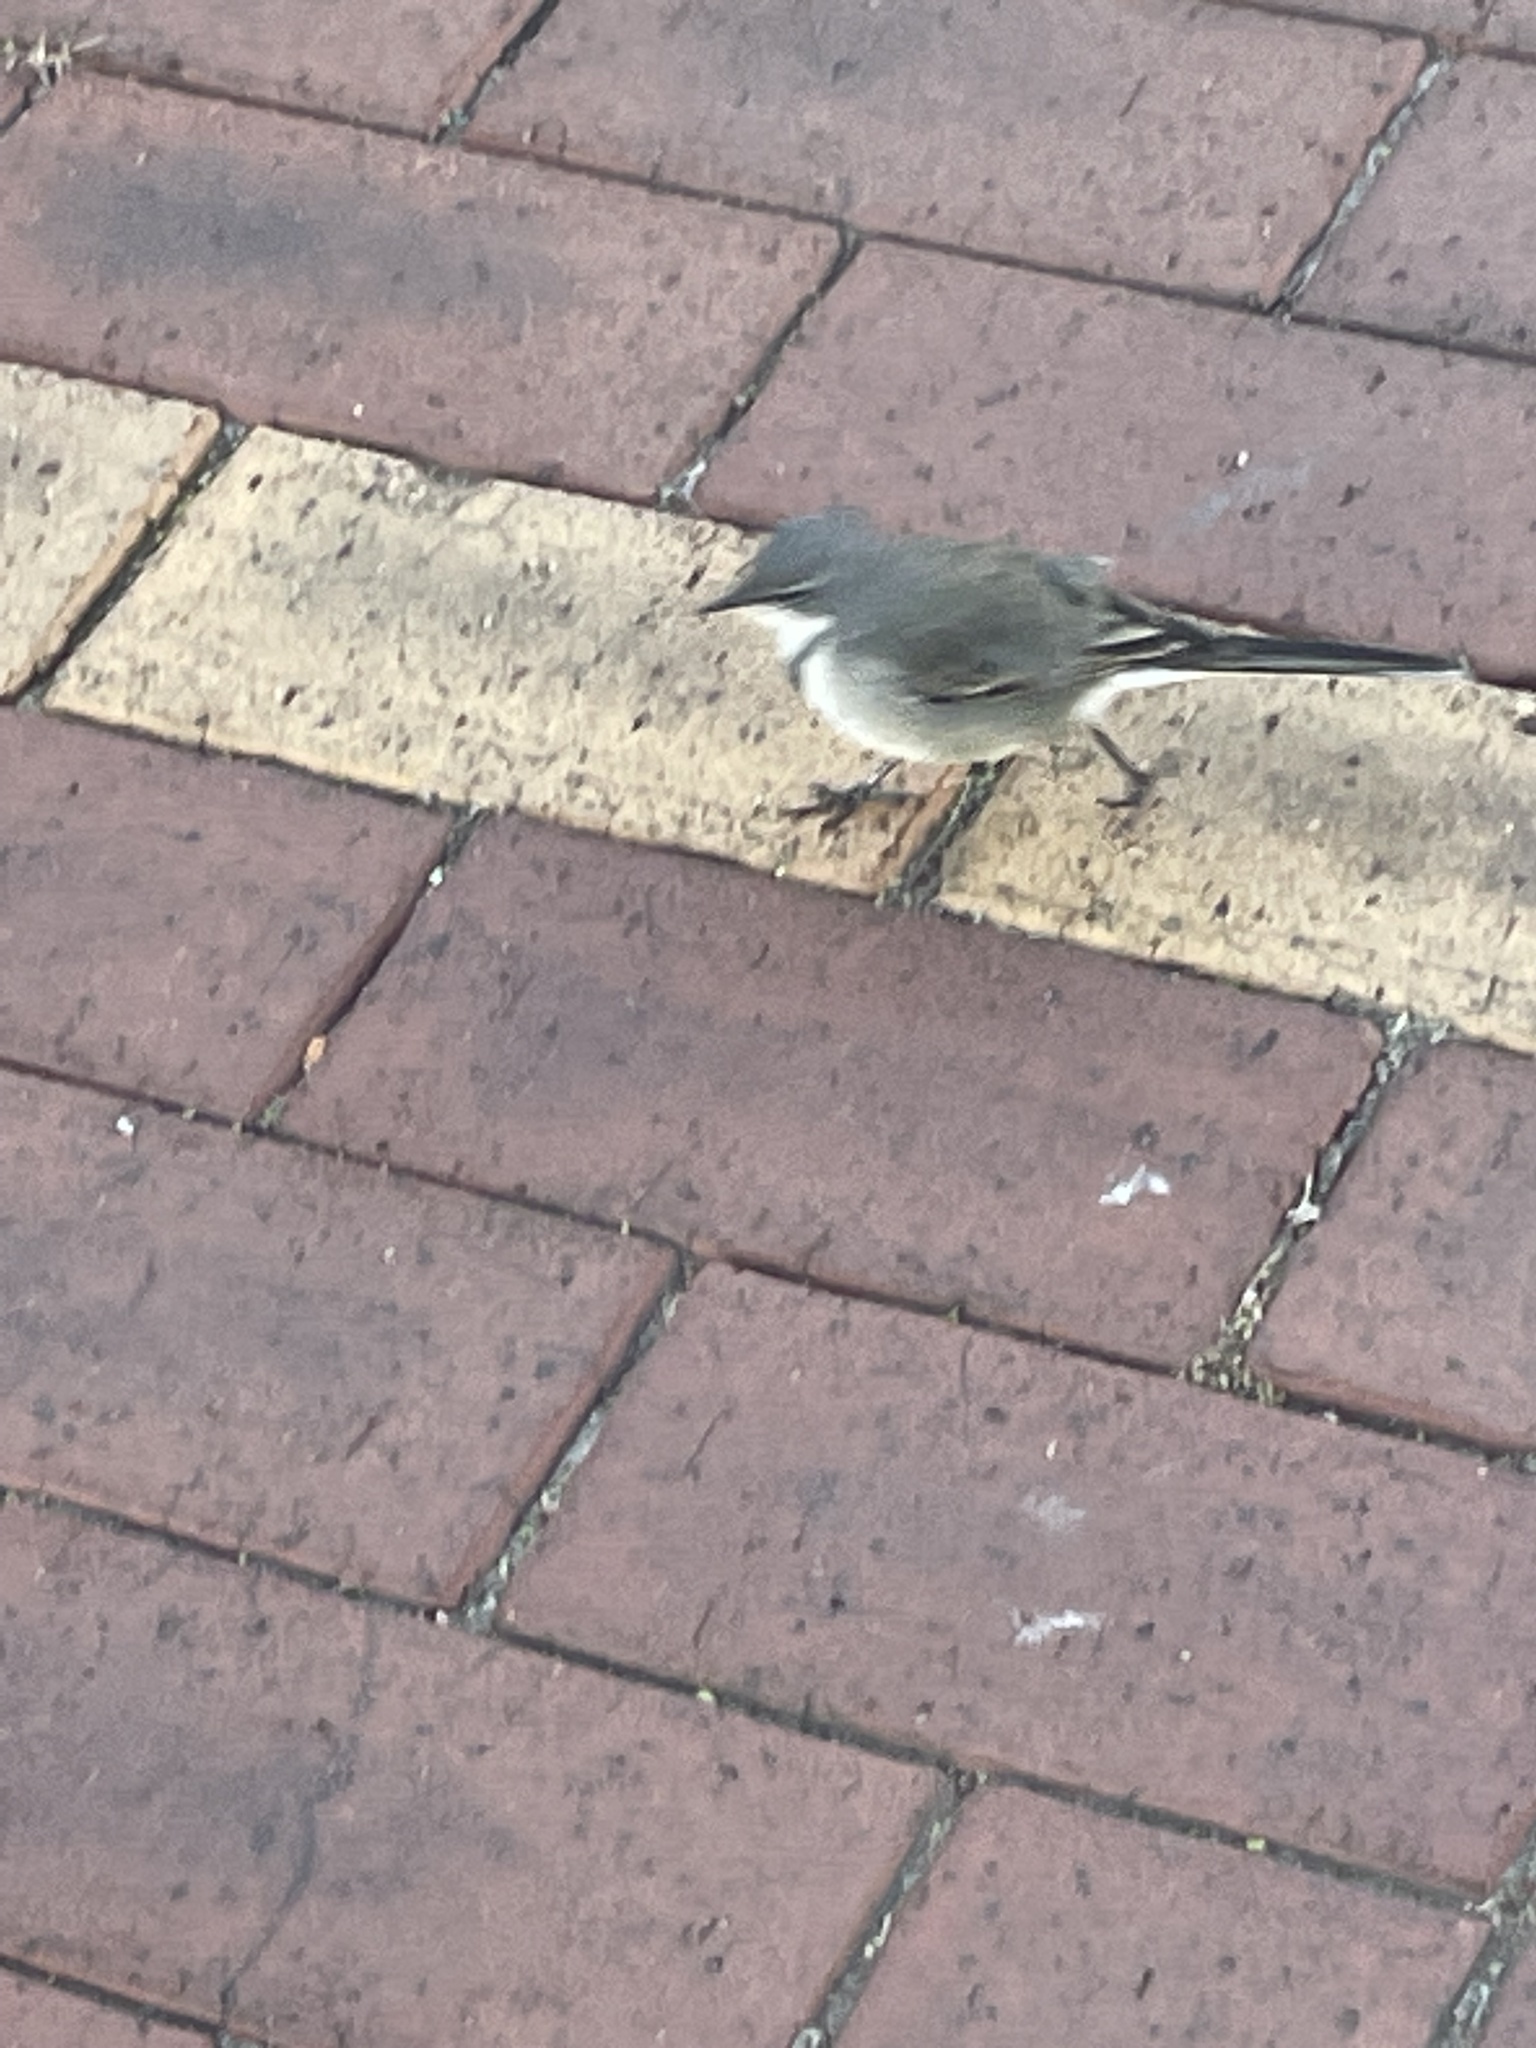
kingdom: Animalia
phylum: Chordata
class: Aves
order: Passeriformes
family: Motacillidae
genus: Motacilla
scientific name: Motacilla capensis
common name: Cape wagtail
